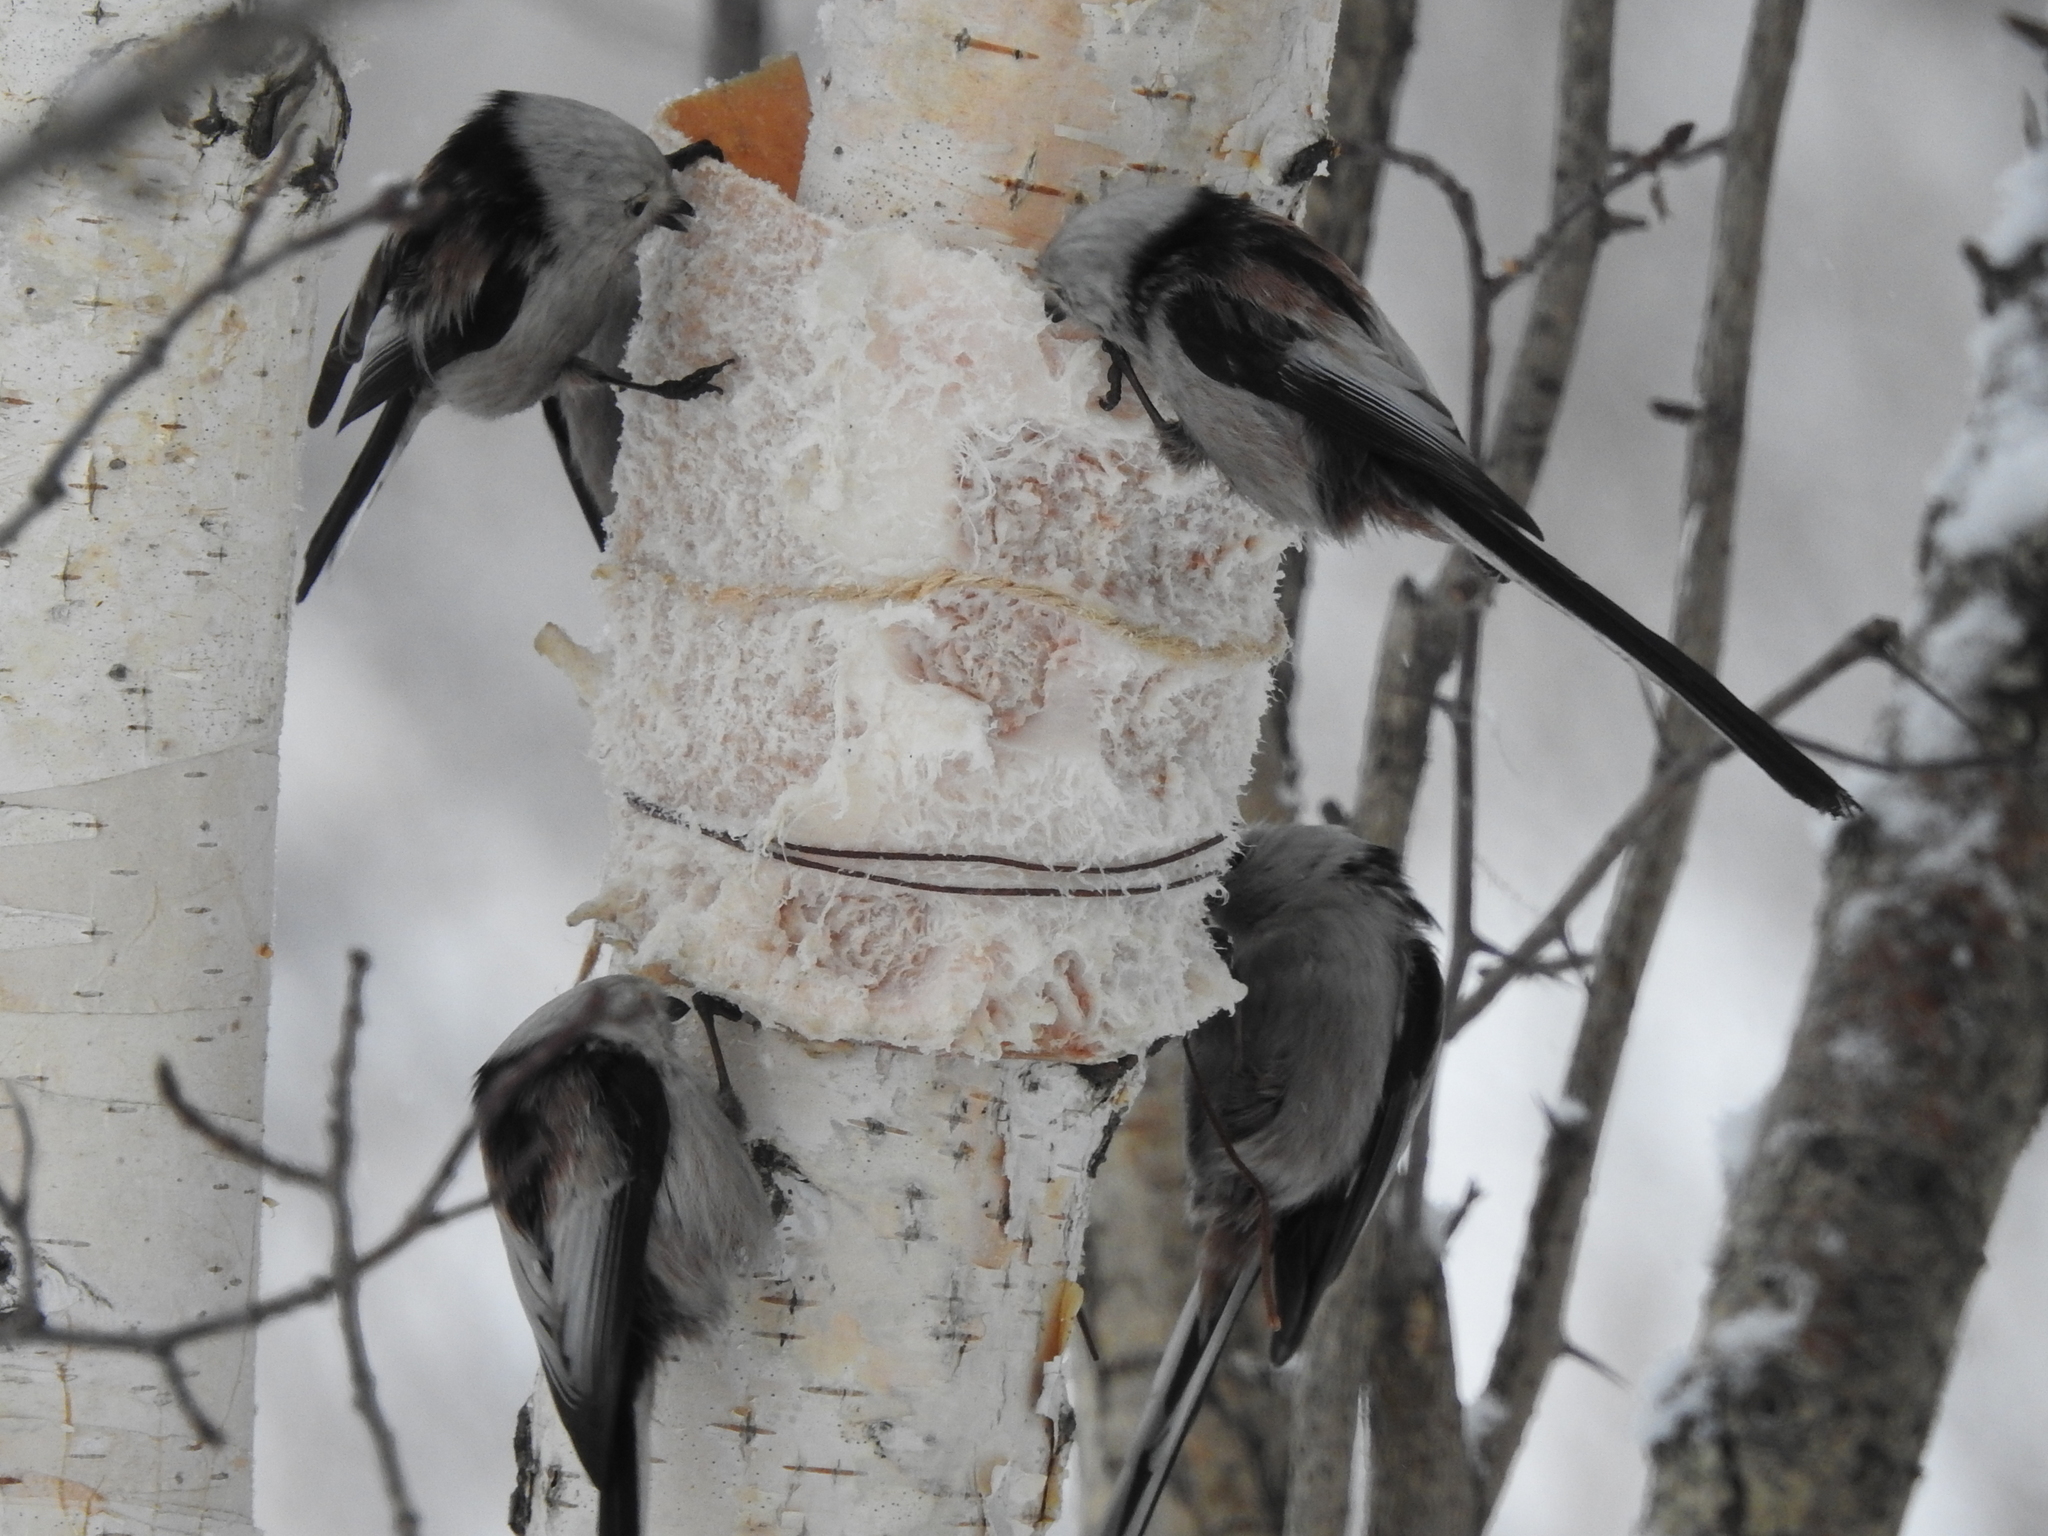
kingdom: Animalia
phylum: Chordata
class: Aves
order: Passeriformes
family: Aegithalidae
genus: Aegithalos
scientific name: Aegithalos caudatus
